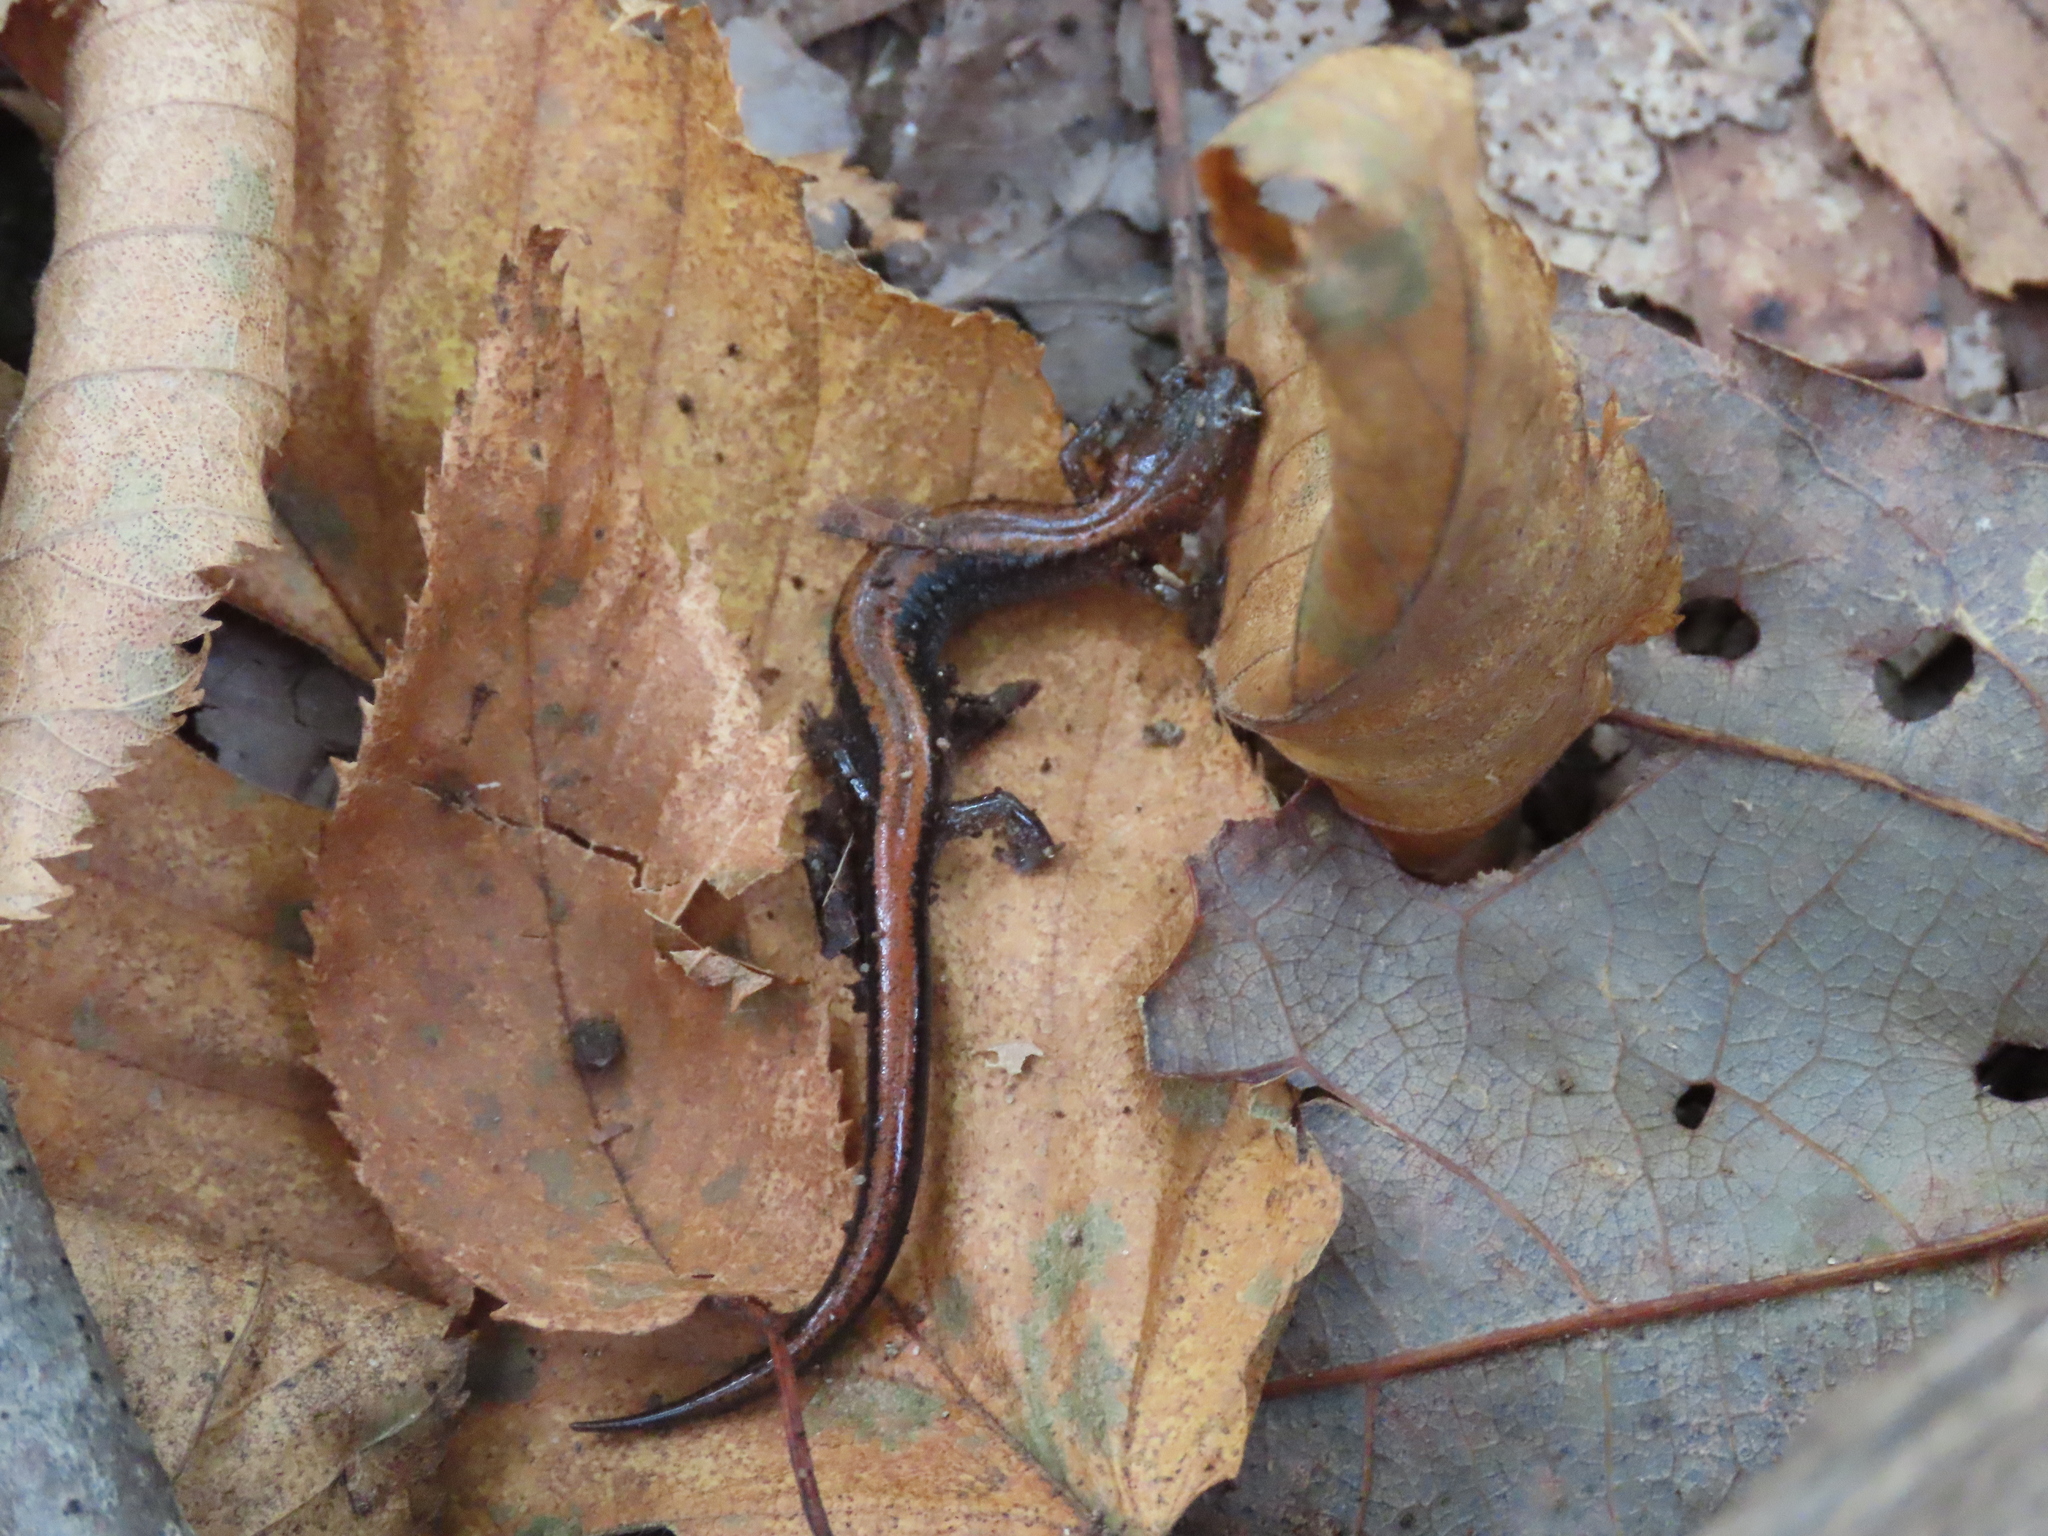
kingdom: Animalia
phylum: Chordata
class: Amphibia
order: Caudata
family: Plethodontidae
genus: Plethodon
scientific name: Plethodon cinereus
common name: Redback salamander
